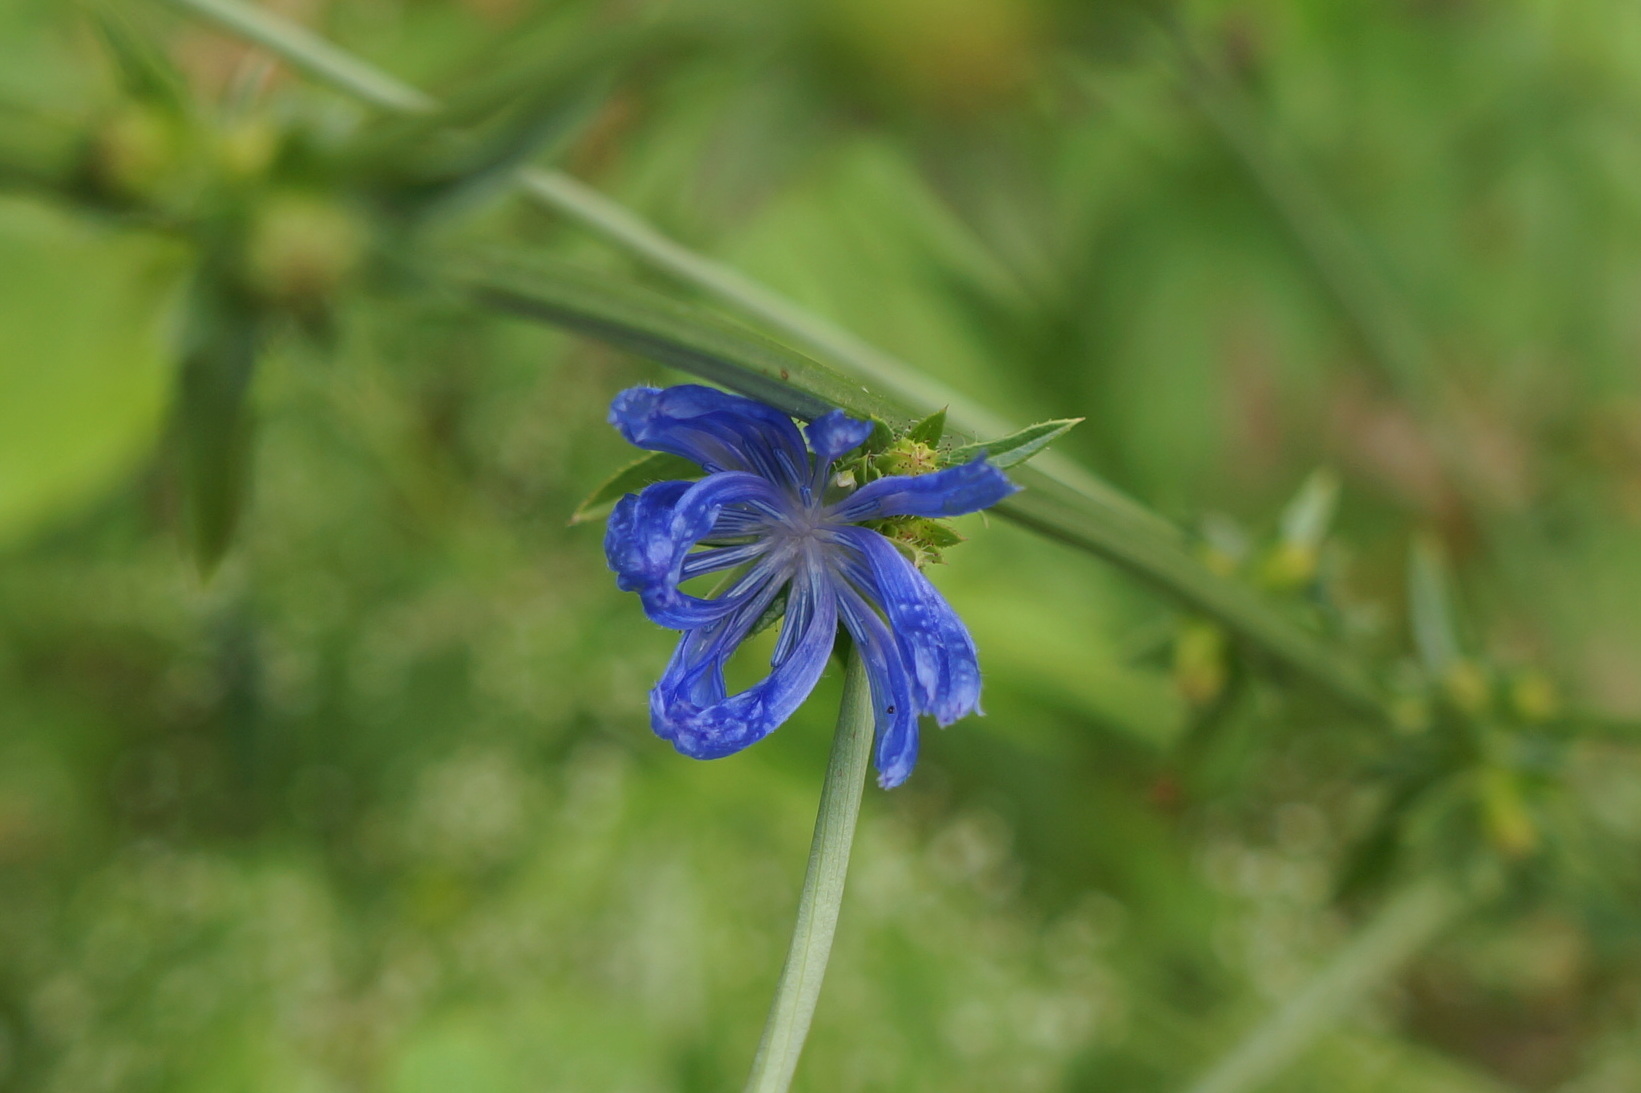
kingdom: Plantae
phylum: Tracheophyta
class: Magnoliopsida
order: Asterales
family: Asteraceae
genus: Cichorium
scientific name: Cichorium intybus
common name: Chicory
